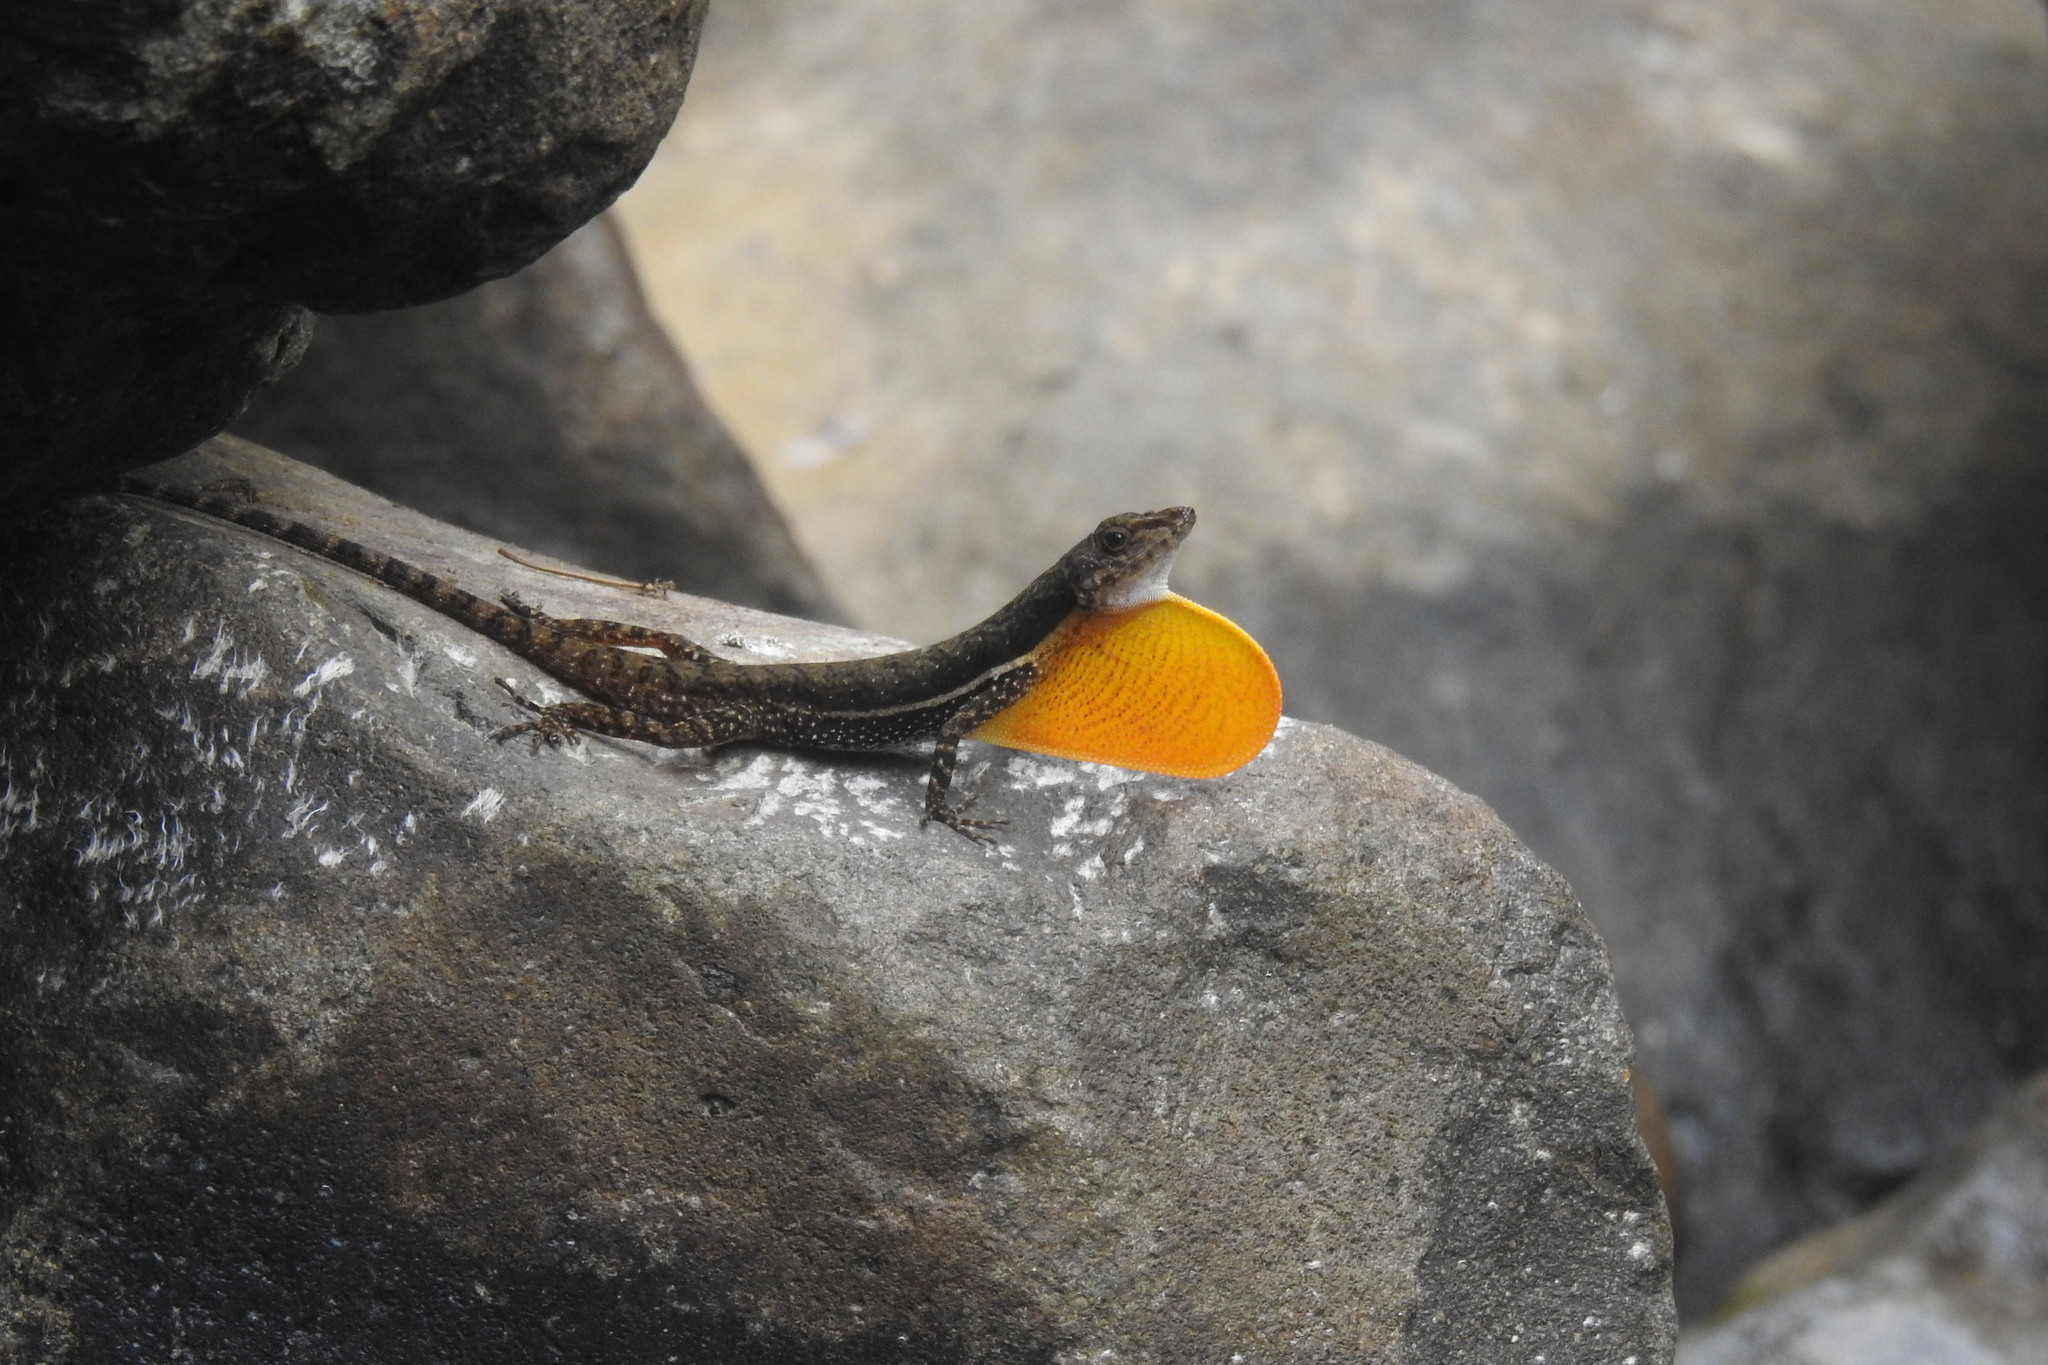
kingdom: Animalia
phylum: Chordata
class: Squamata
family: Dactyloidae
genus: Anolis
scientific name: Anolis oxylophus
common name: Stream anole
